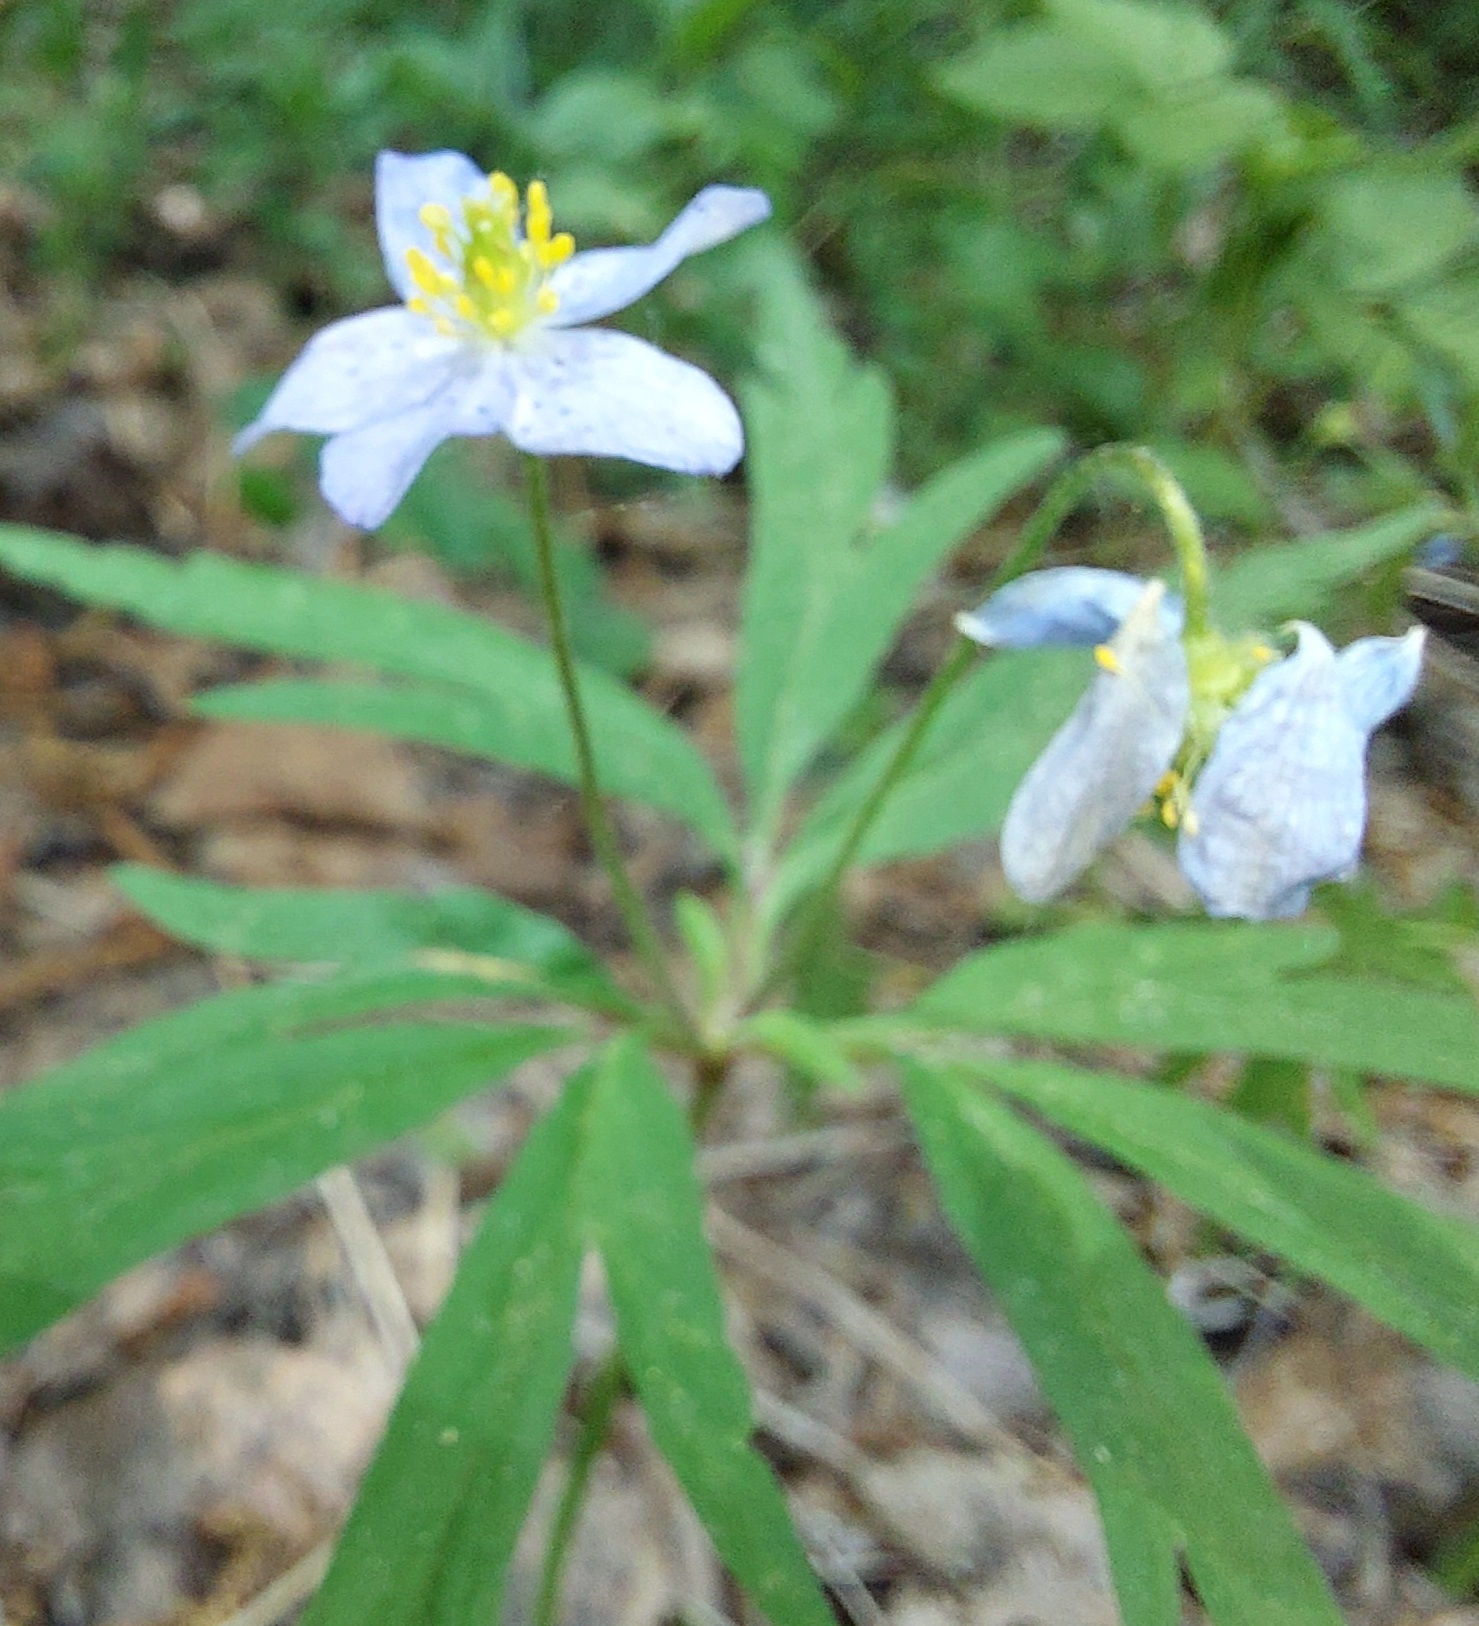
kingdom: Plantae
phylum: Tracheophyta
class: Magnoliopsida
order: Ranunculales
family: Ranunculaceae
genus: Anemone
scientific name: Anemone caerulea
